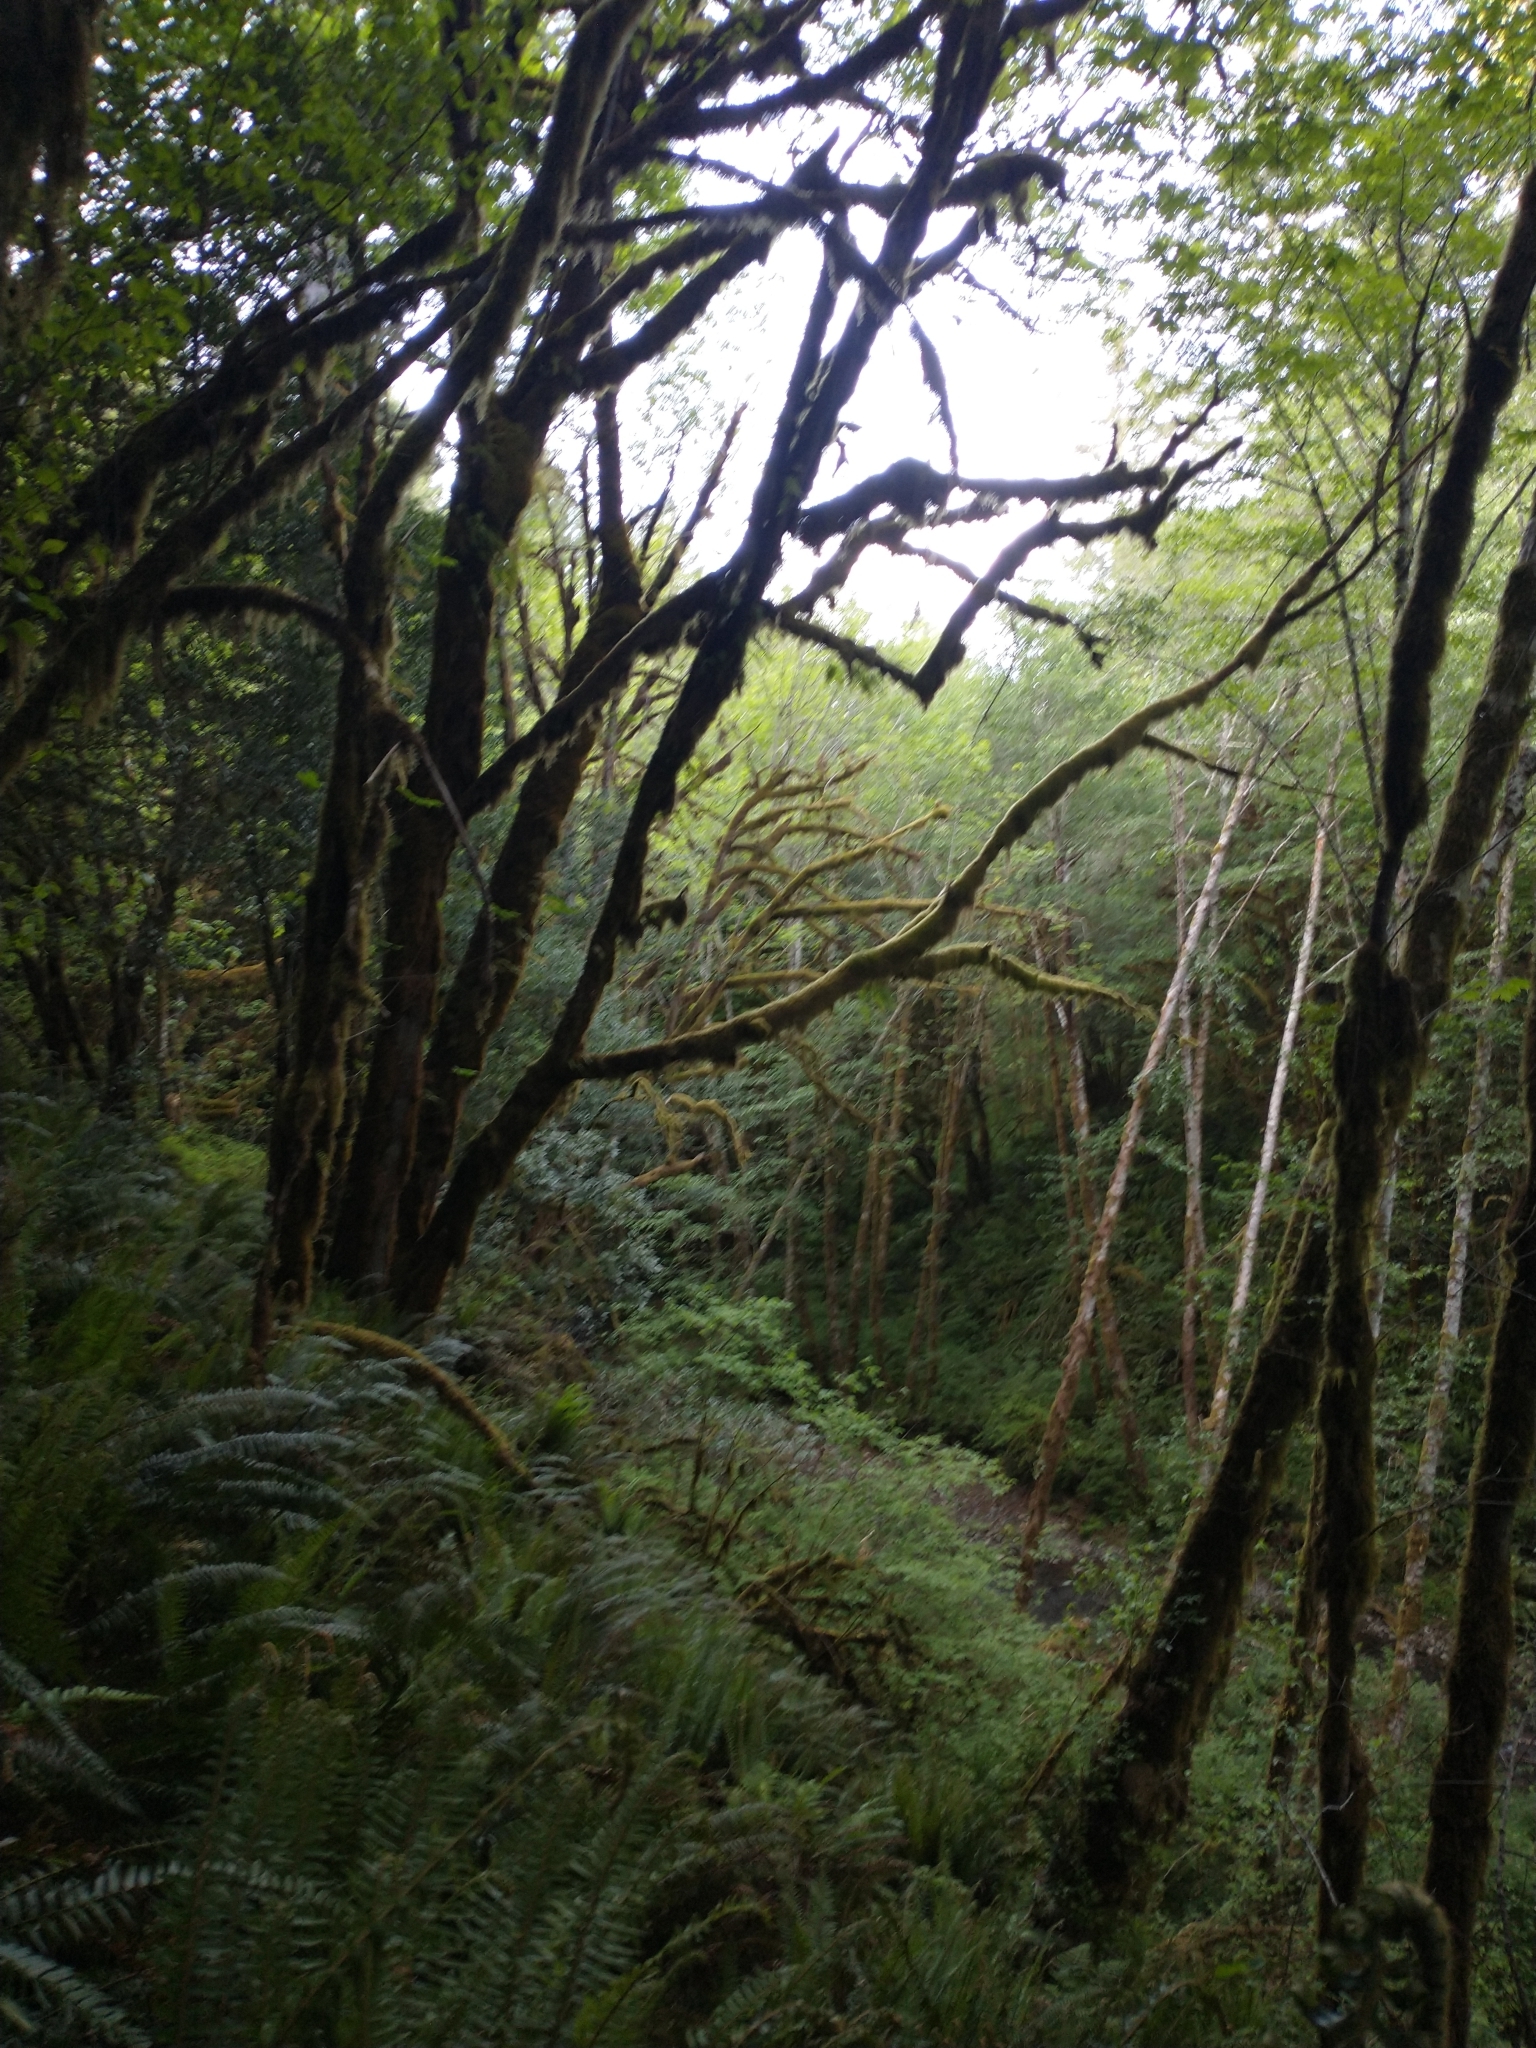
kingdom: Plantae
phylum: Tracheophyta
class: Magnoliopsida
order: Sapindales
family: Sapindaceae
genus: Acer
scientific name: Acer macrophyllum
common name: Oregon maple
